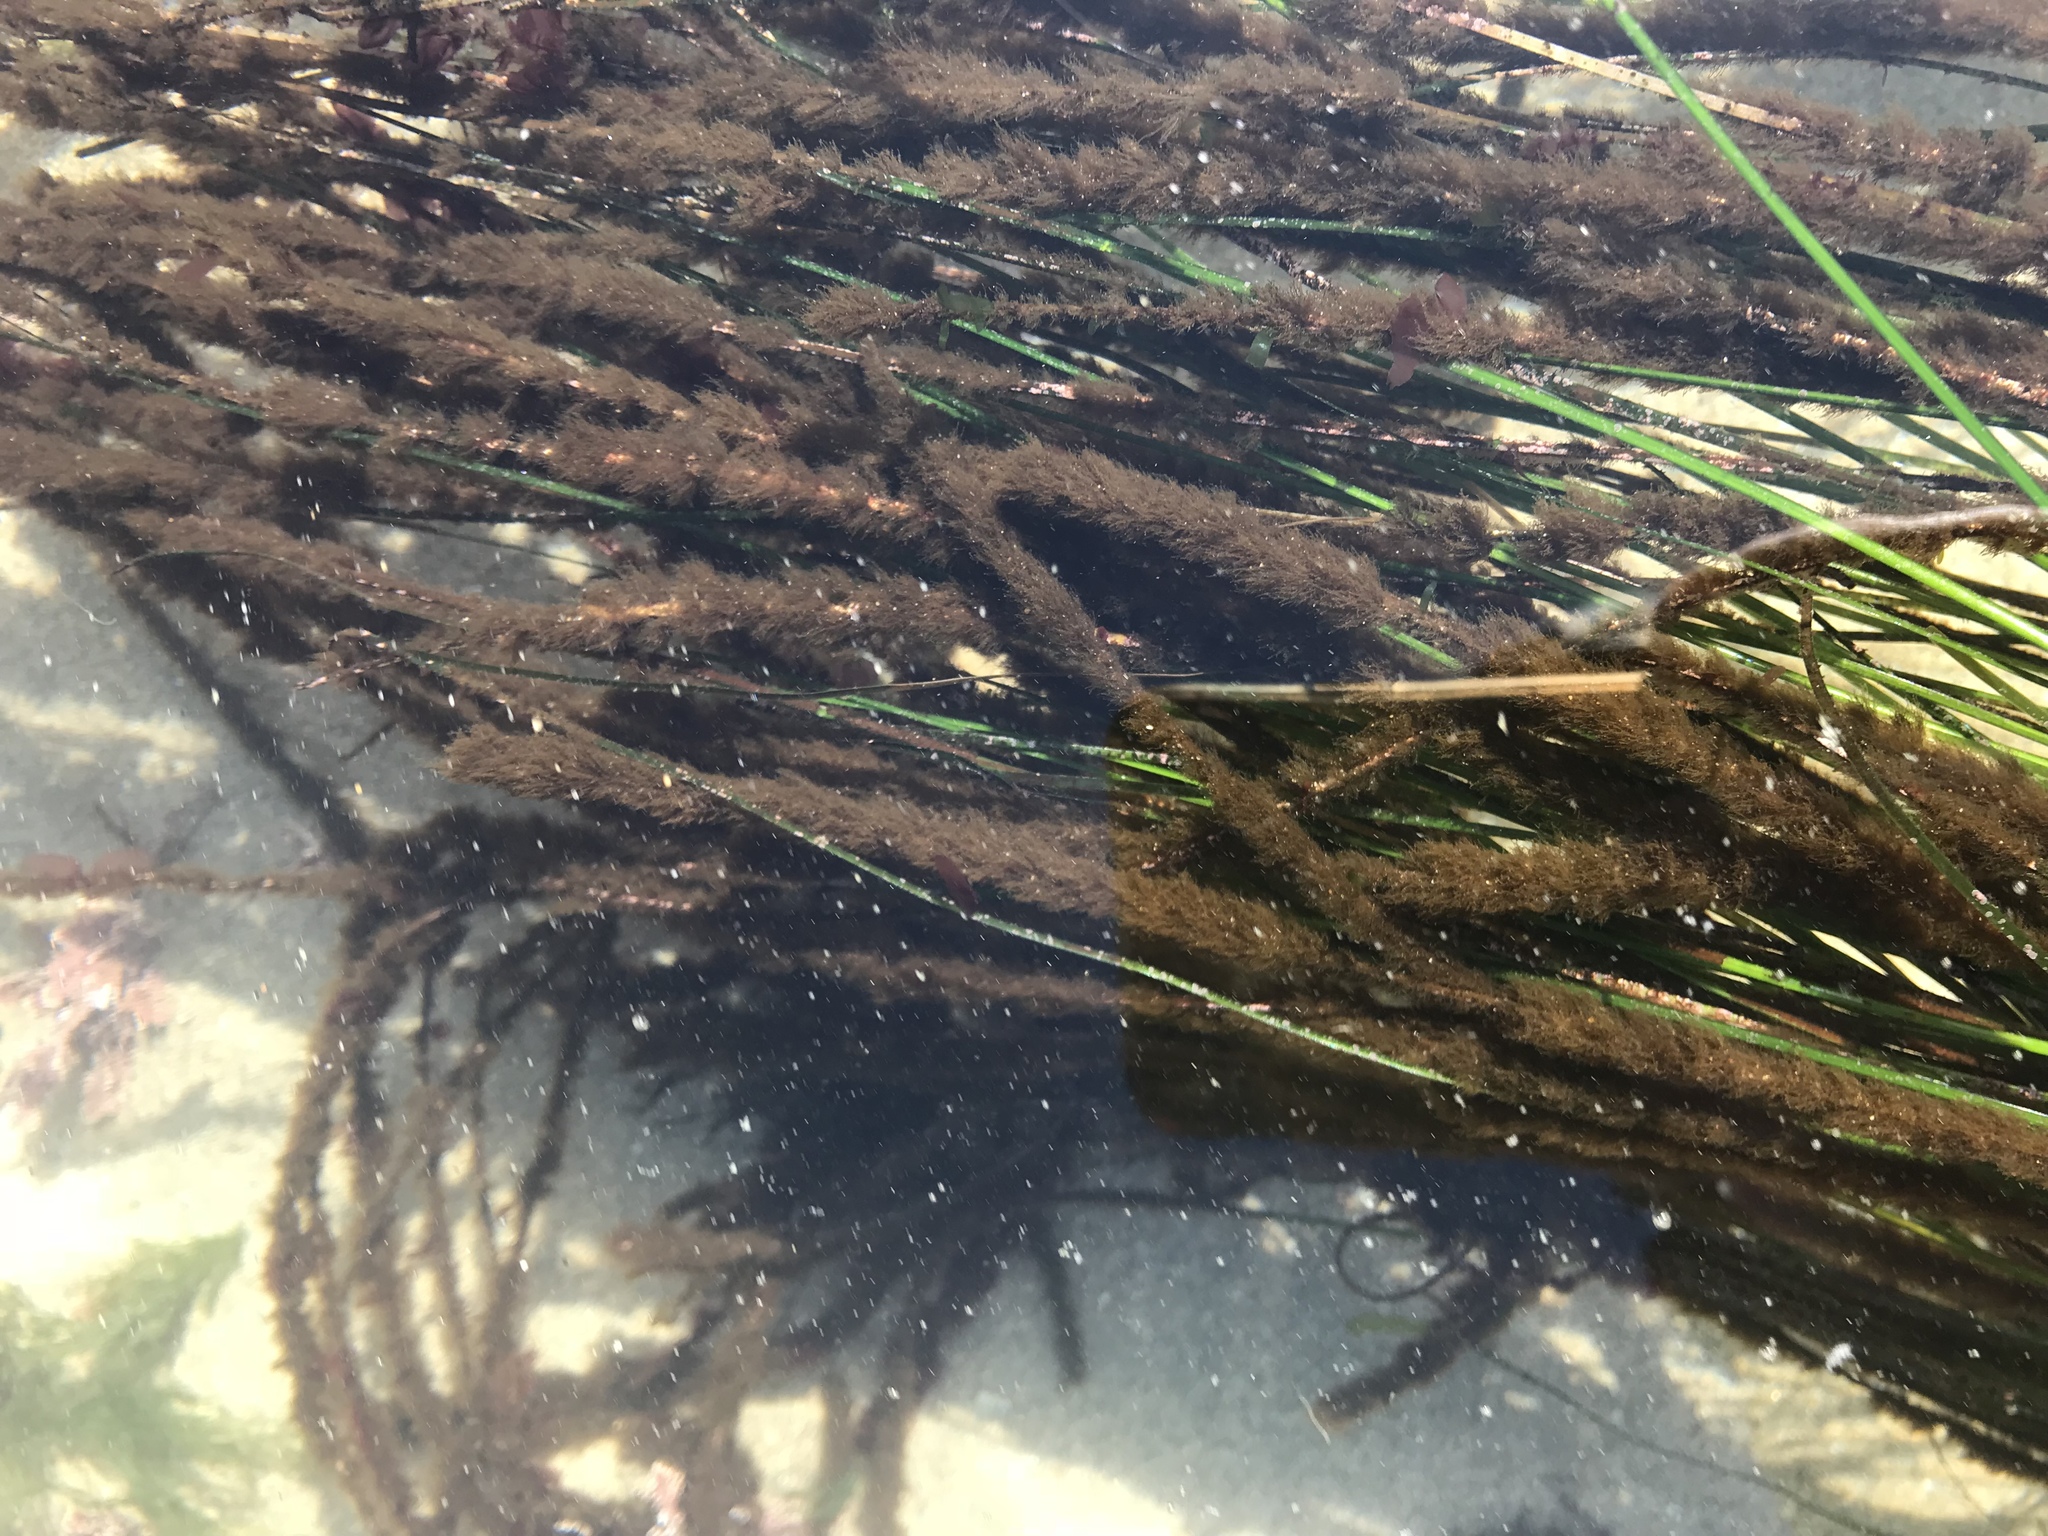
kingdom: Plantae
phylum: Rhodophyta
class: Compsopogonophyceae
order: Erythropeltidales
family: Erythrotrichiaceae
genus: Smithora
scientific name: Smithora naiadum
